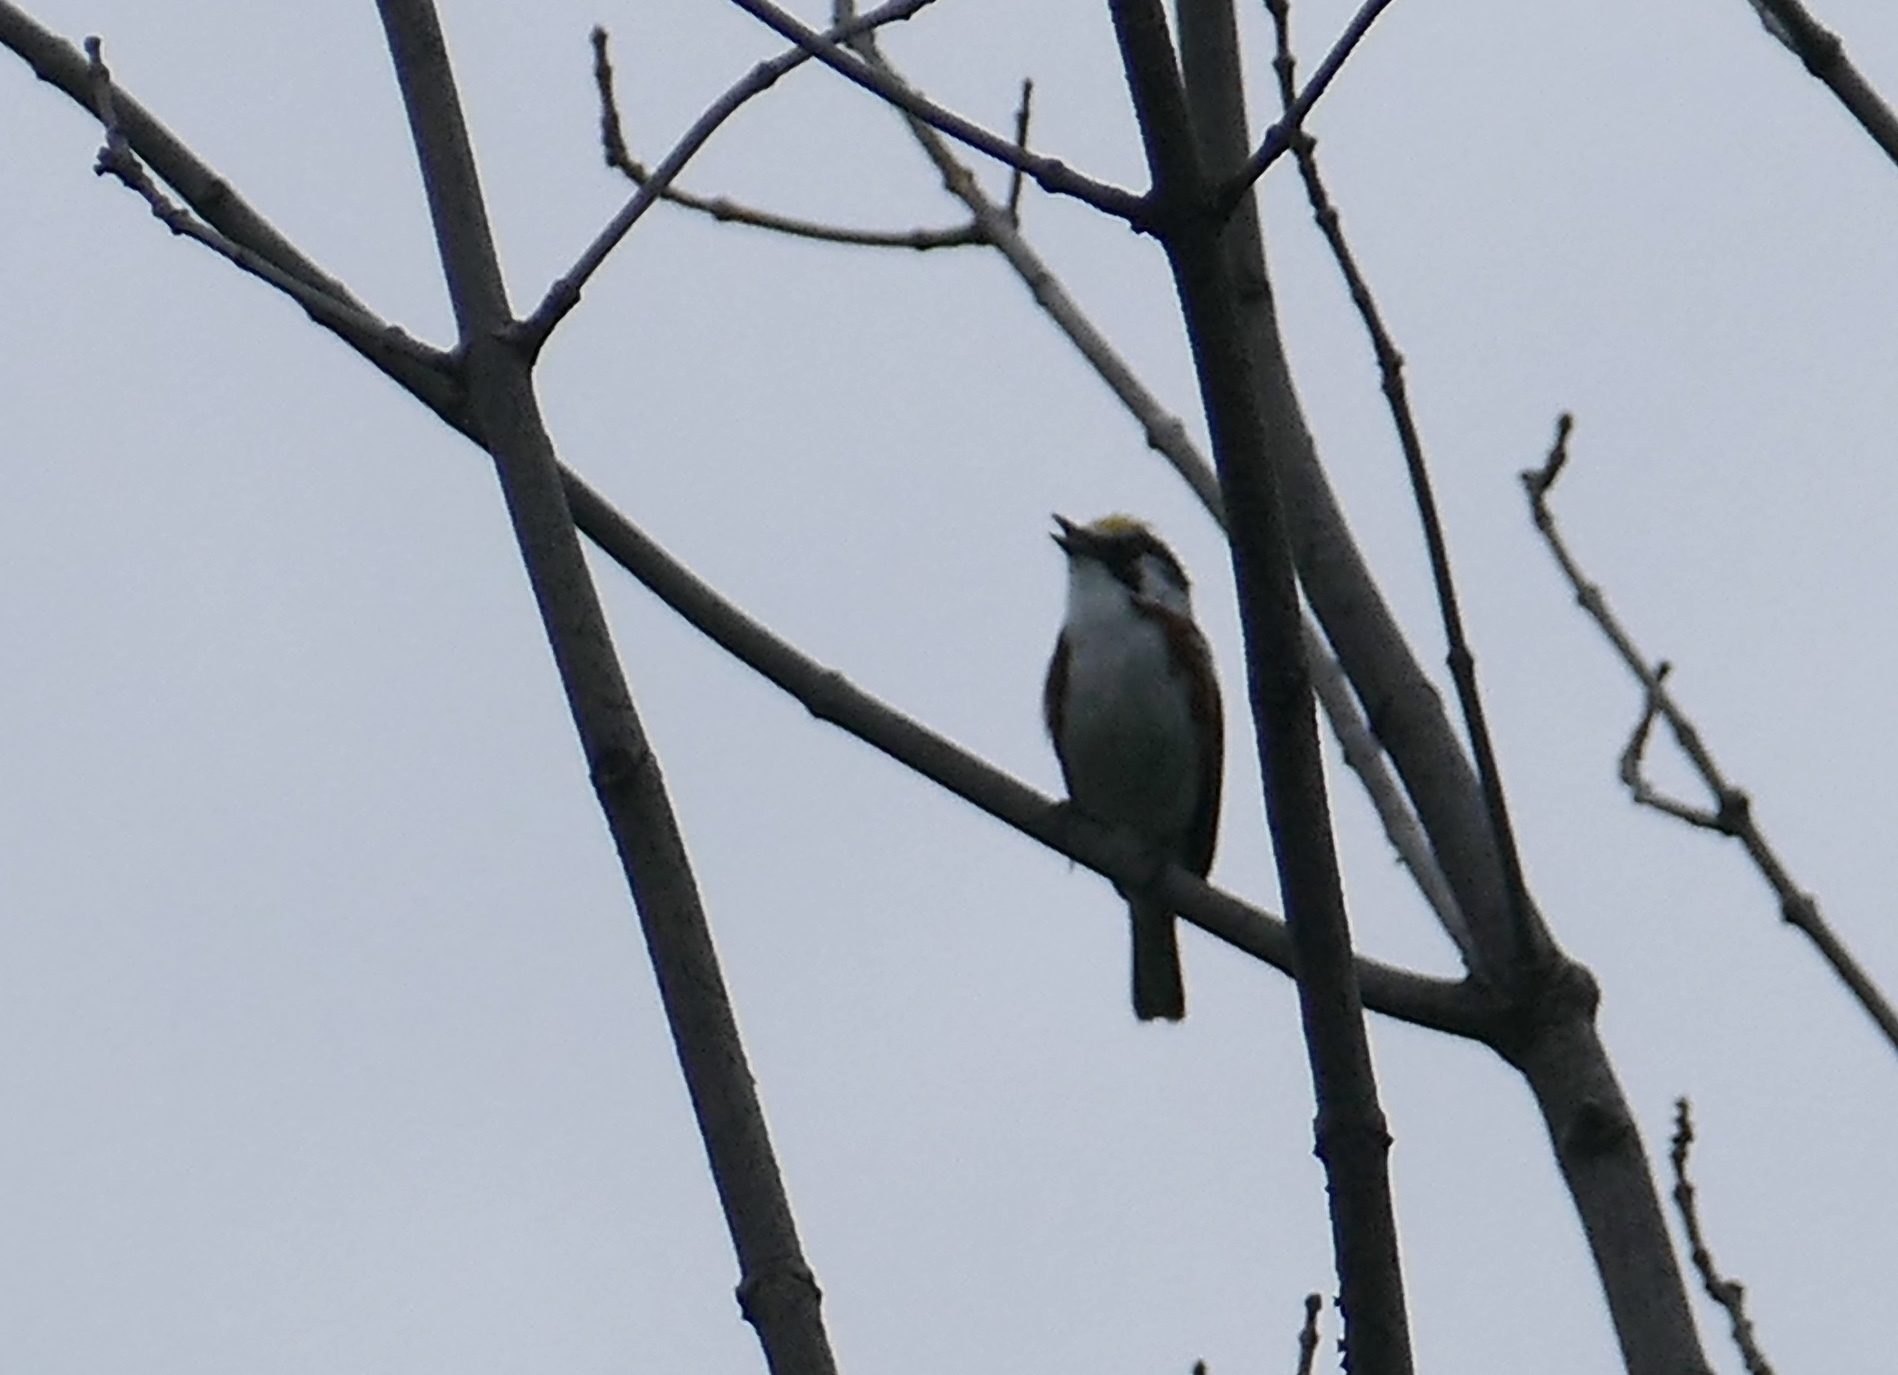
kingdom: Animalia
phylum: Chordata
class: Aves
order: Passeriformes
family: Parulidae
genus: Setophaga
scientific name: Setophaga pensylvanica
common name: Chestnut-sided warbler
